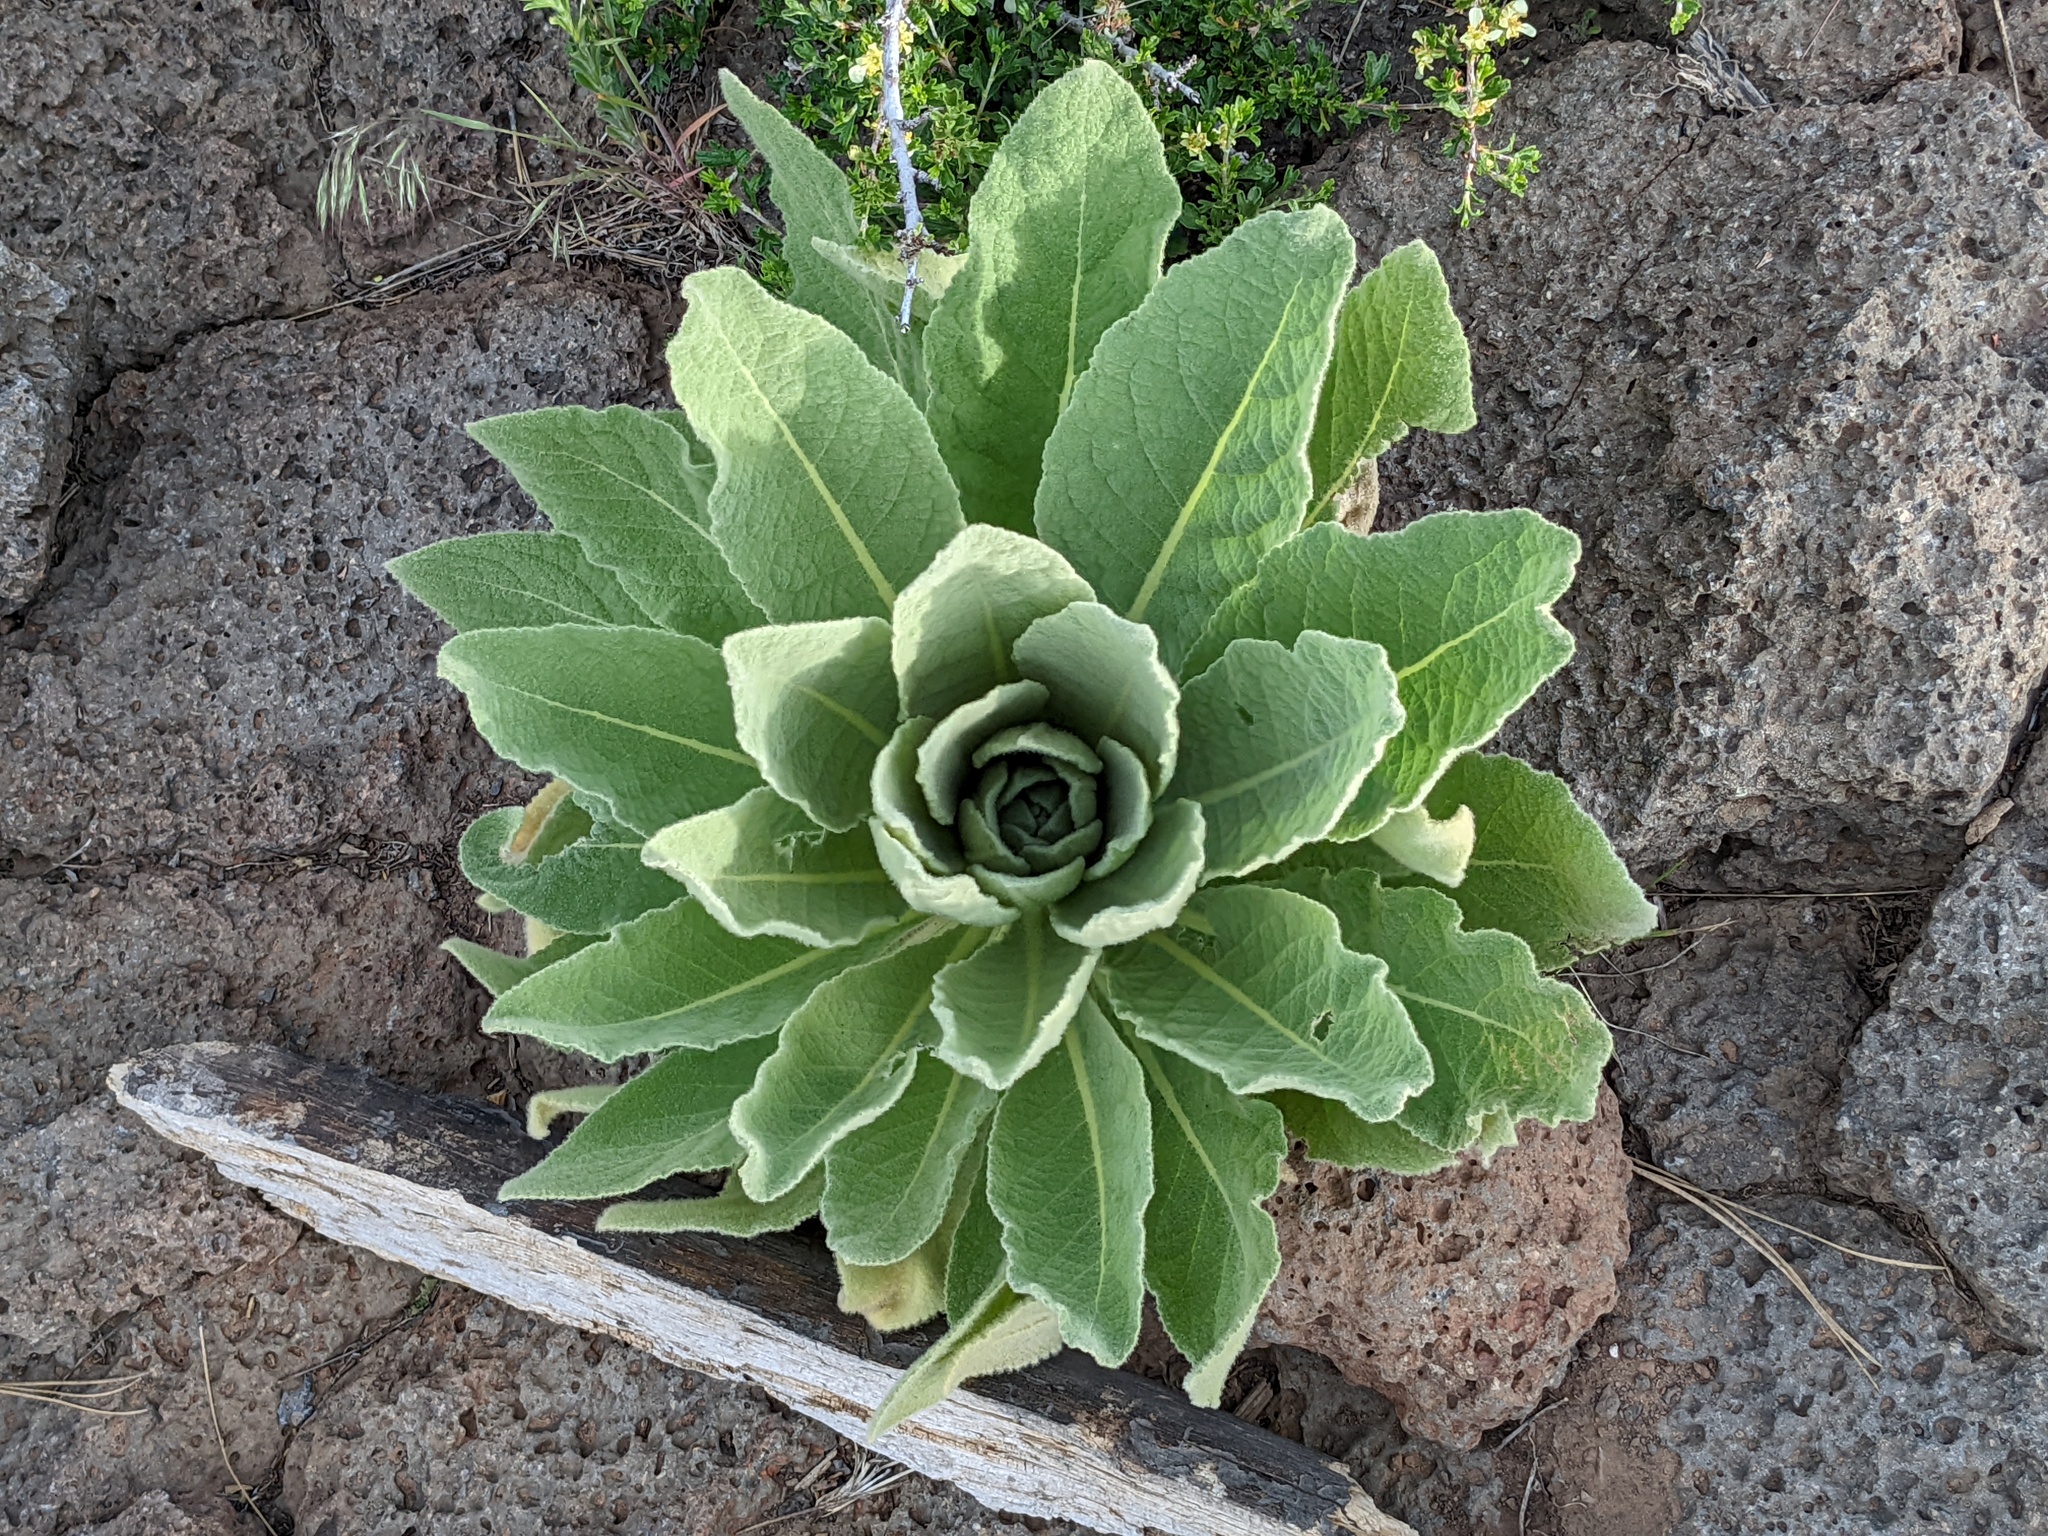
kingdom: Plantae
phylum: Tracheophyta
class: Magnoliopsida
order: Lamiales
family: Scrophulariaceae
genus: Verbascum
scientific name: Verbascum thapsus
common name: Common mullein
